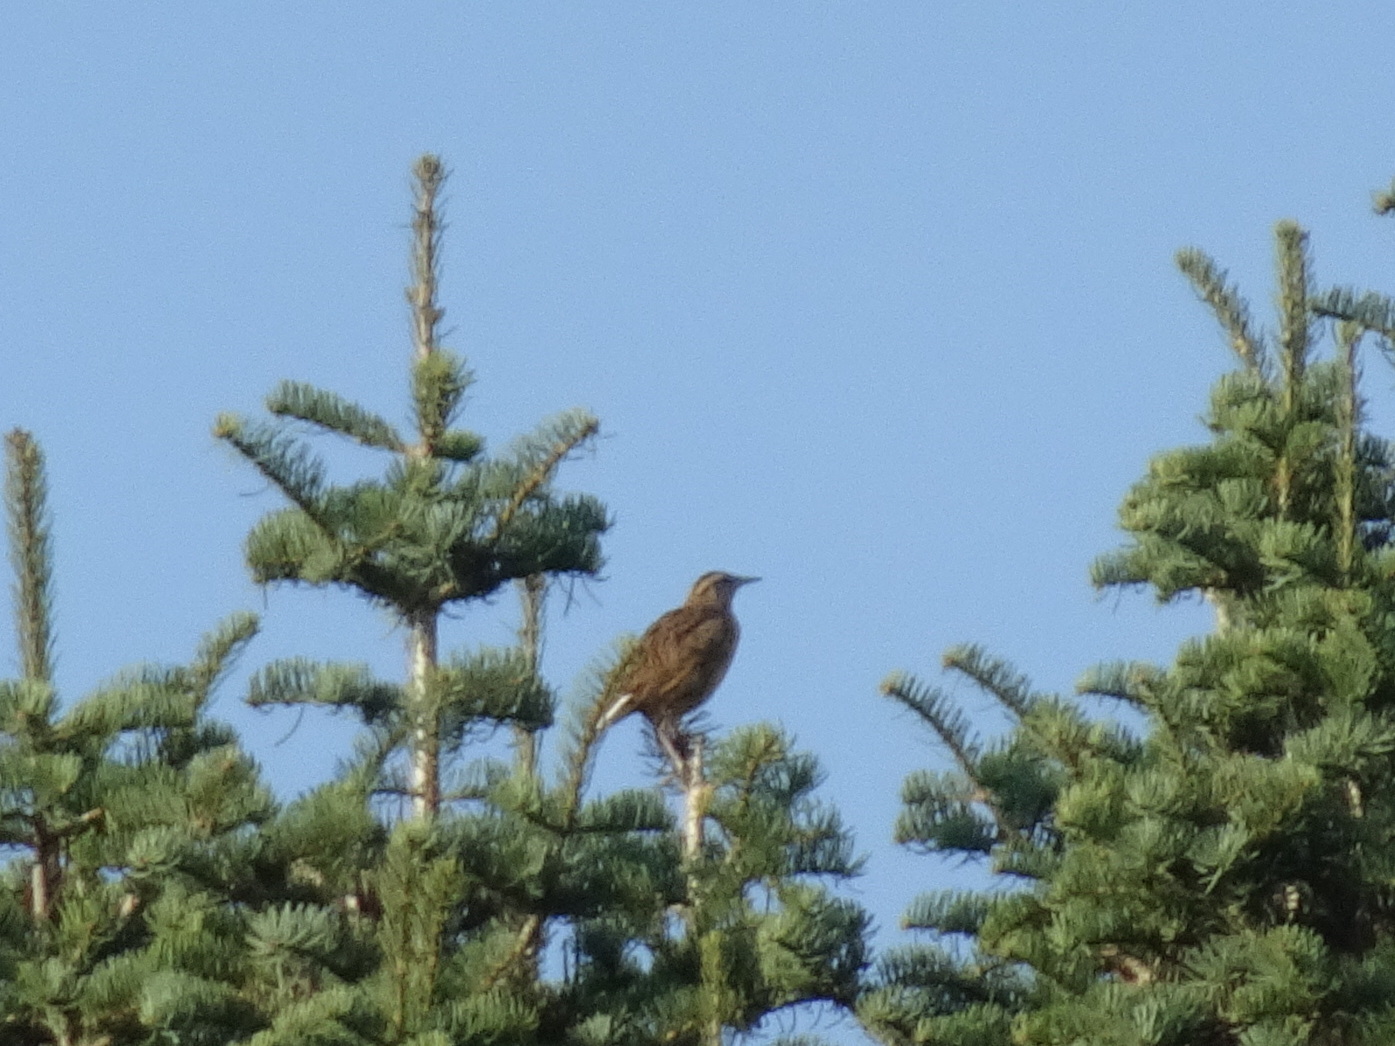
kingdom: Animalia
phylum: Chordata
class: Aves
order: Passeriformes
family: Icteridae
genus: Sturnella
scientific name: Sturnella magna
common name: Eastern meadowlark
